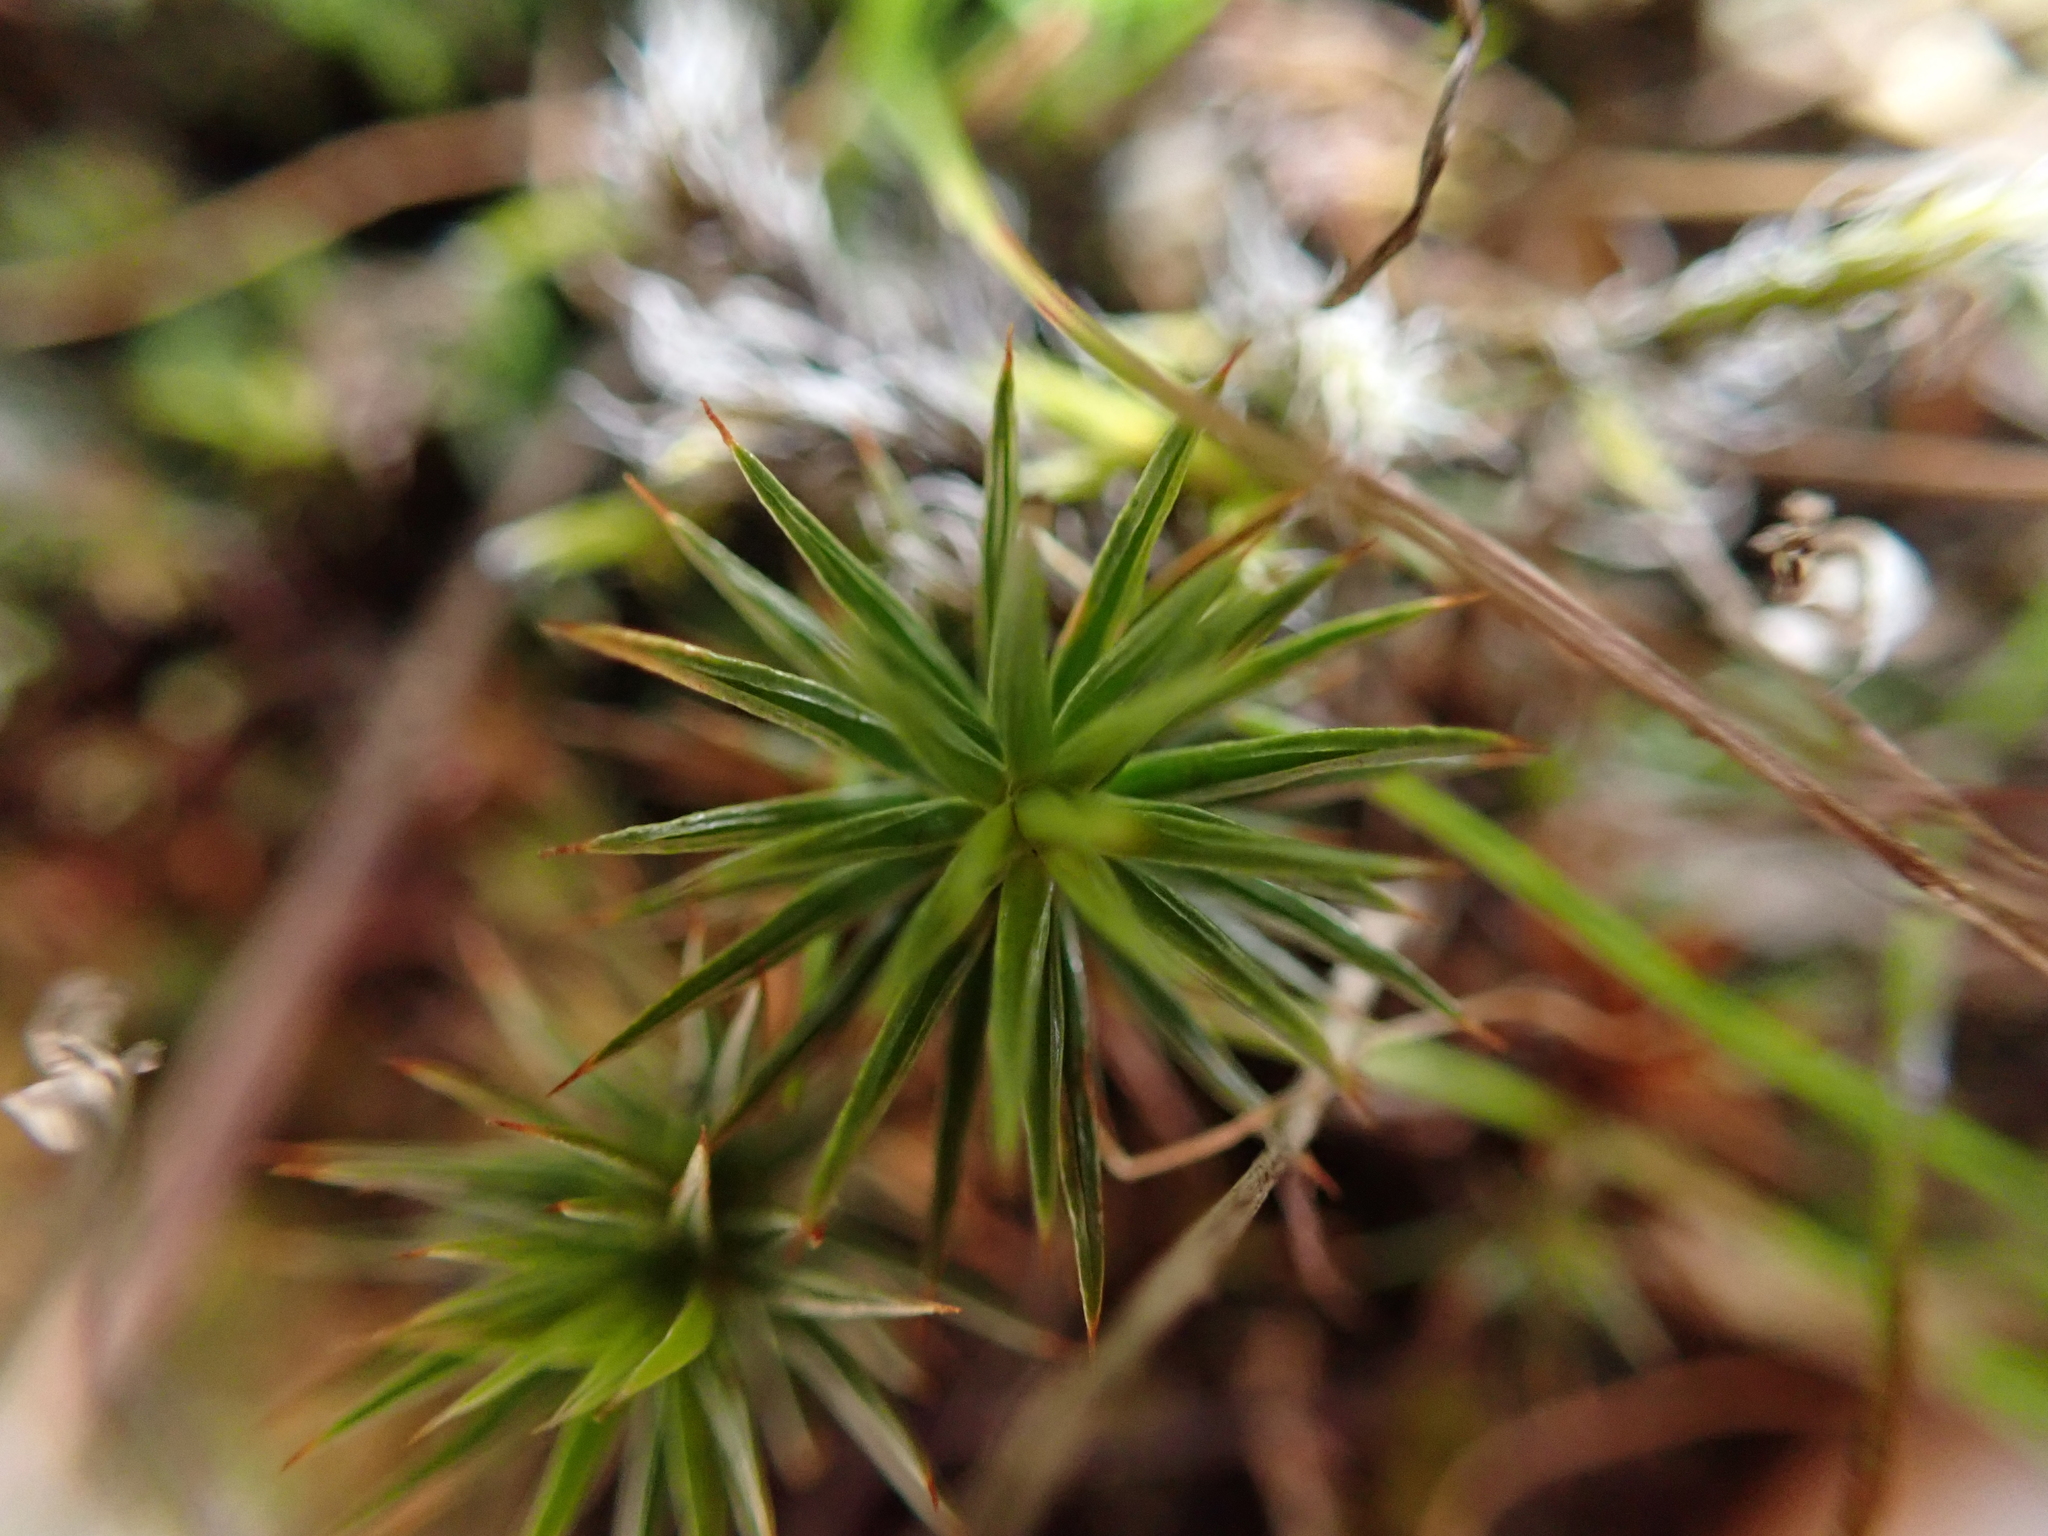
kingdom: Plantae
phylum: Bryophyta
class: Polytrichopsida
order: Polytrichales
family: Polytrichaceae
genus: Polytrichum
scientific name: Polytrichum juniperinum
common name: Juniper haircap moss
